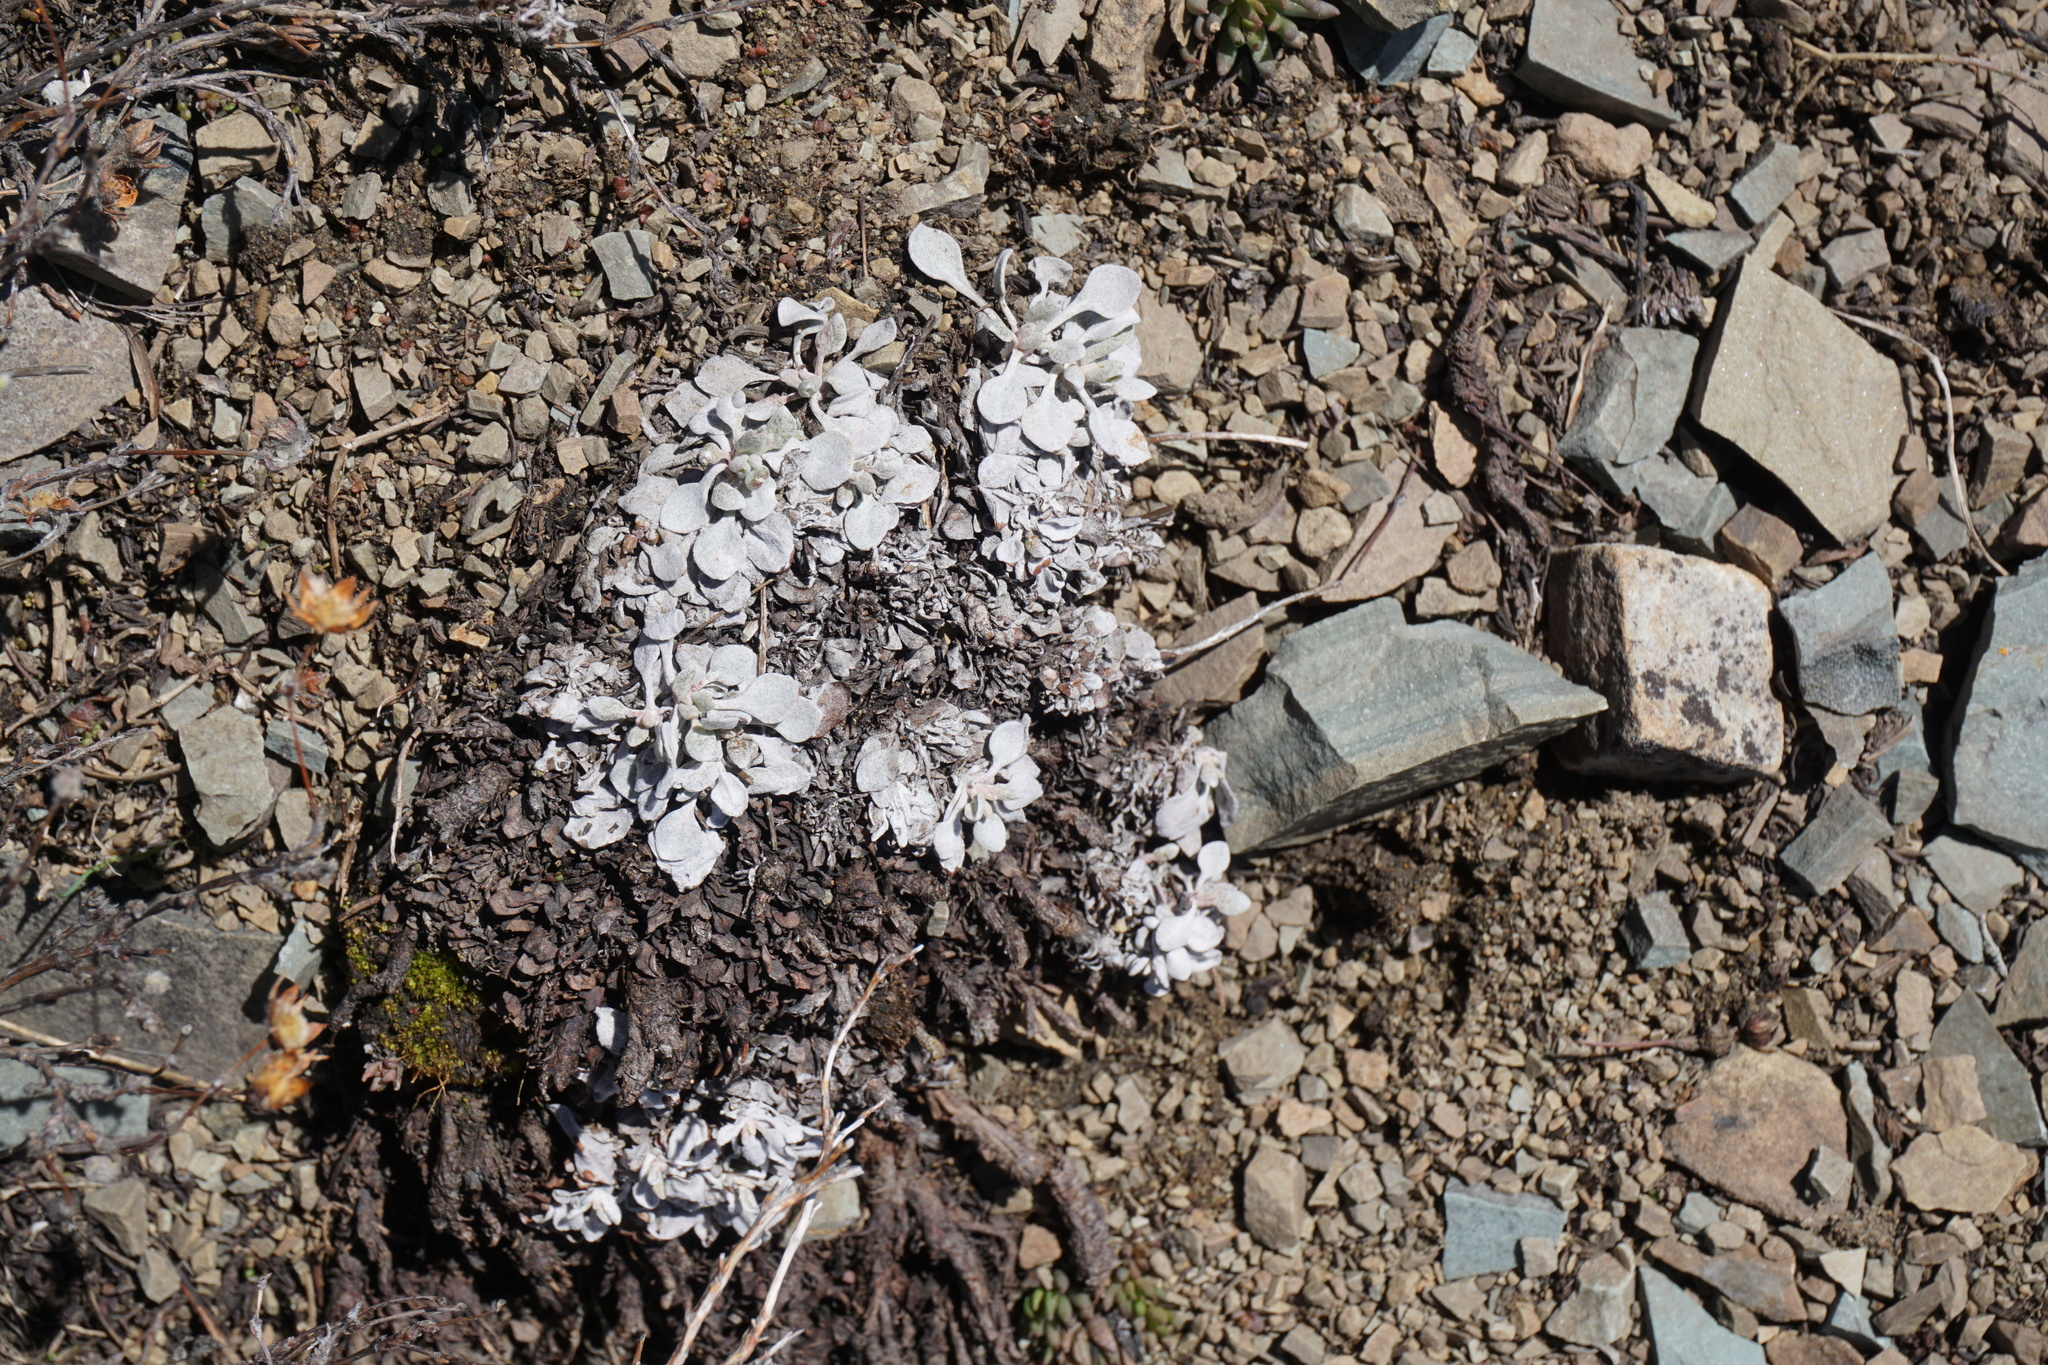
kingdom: Plantae
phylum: Tracheophyta
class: Magnoliopsida
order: Caryophyllales
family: Polygonaceae
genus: Eriogonum
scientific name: Eriogonum ovalifolium
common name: Cushion buckwheat
